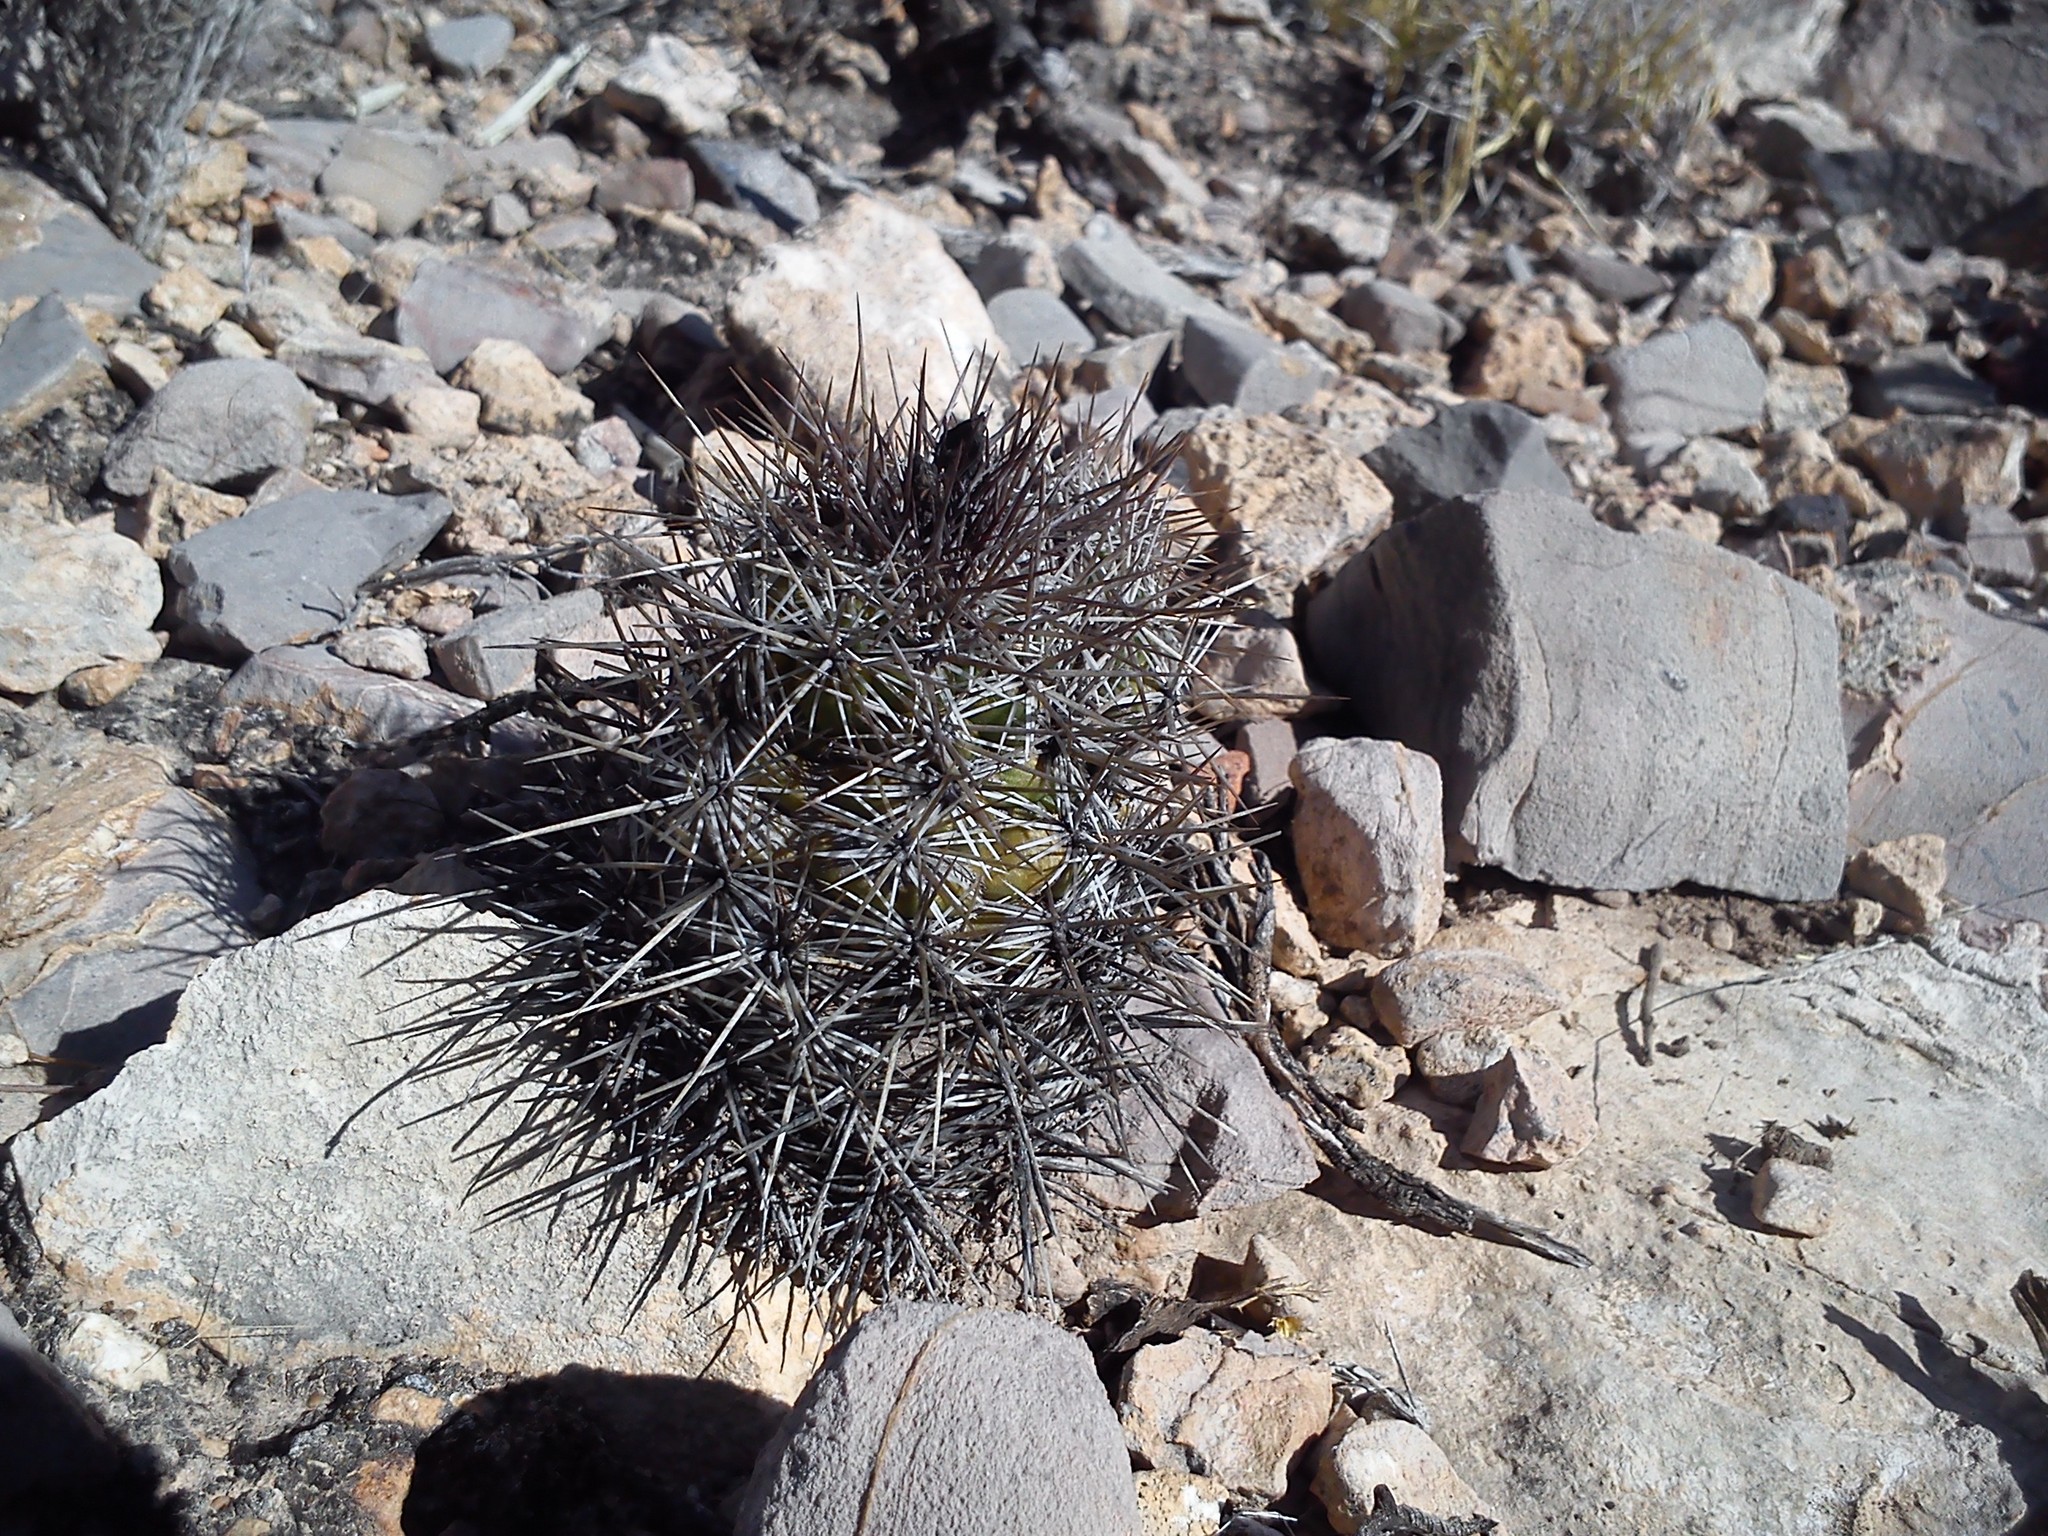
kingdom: Plantae
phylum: Tracheophyta
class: Magnoliopsida
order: Caryophyllales
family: Cactaceae
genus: Cochemiea
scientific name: Cochemiea conoidea
